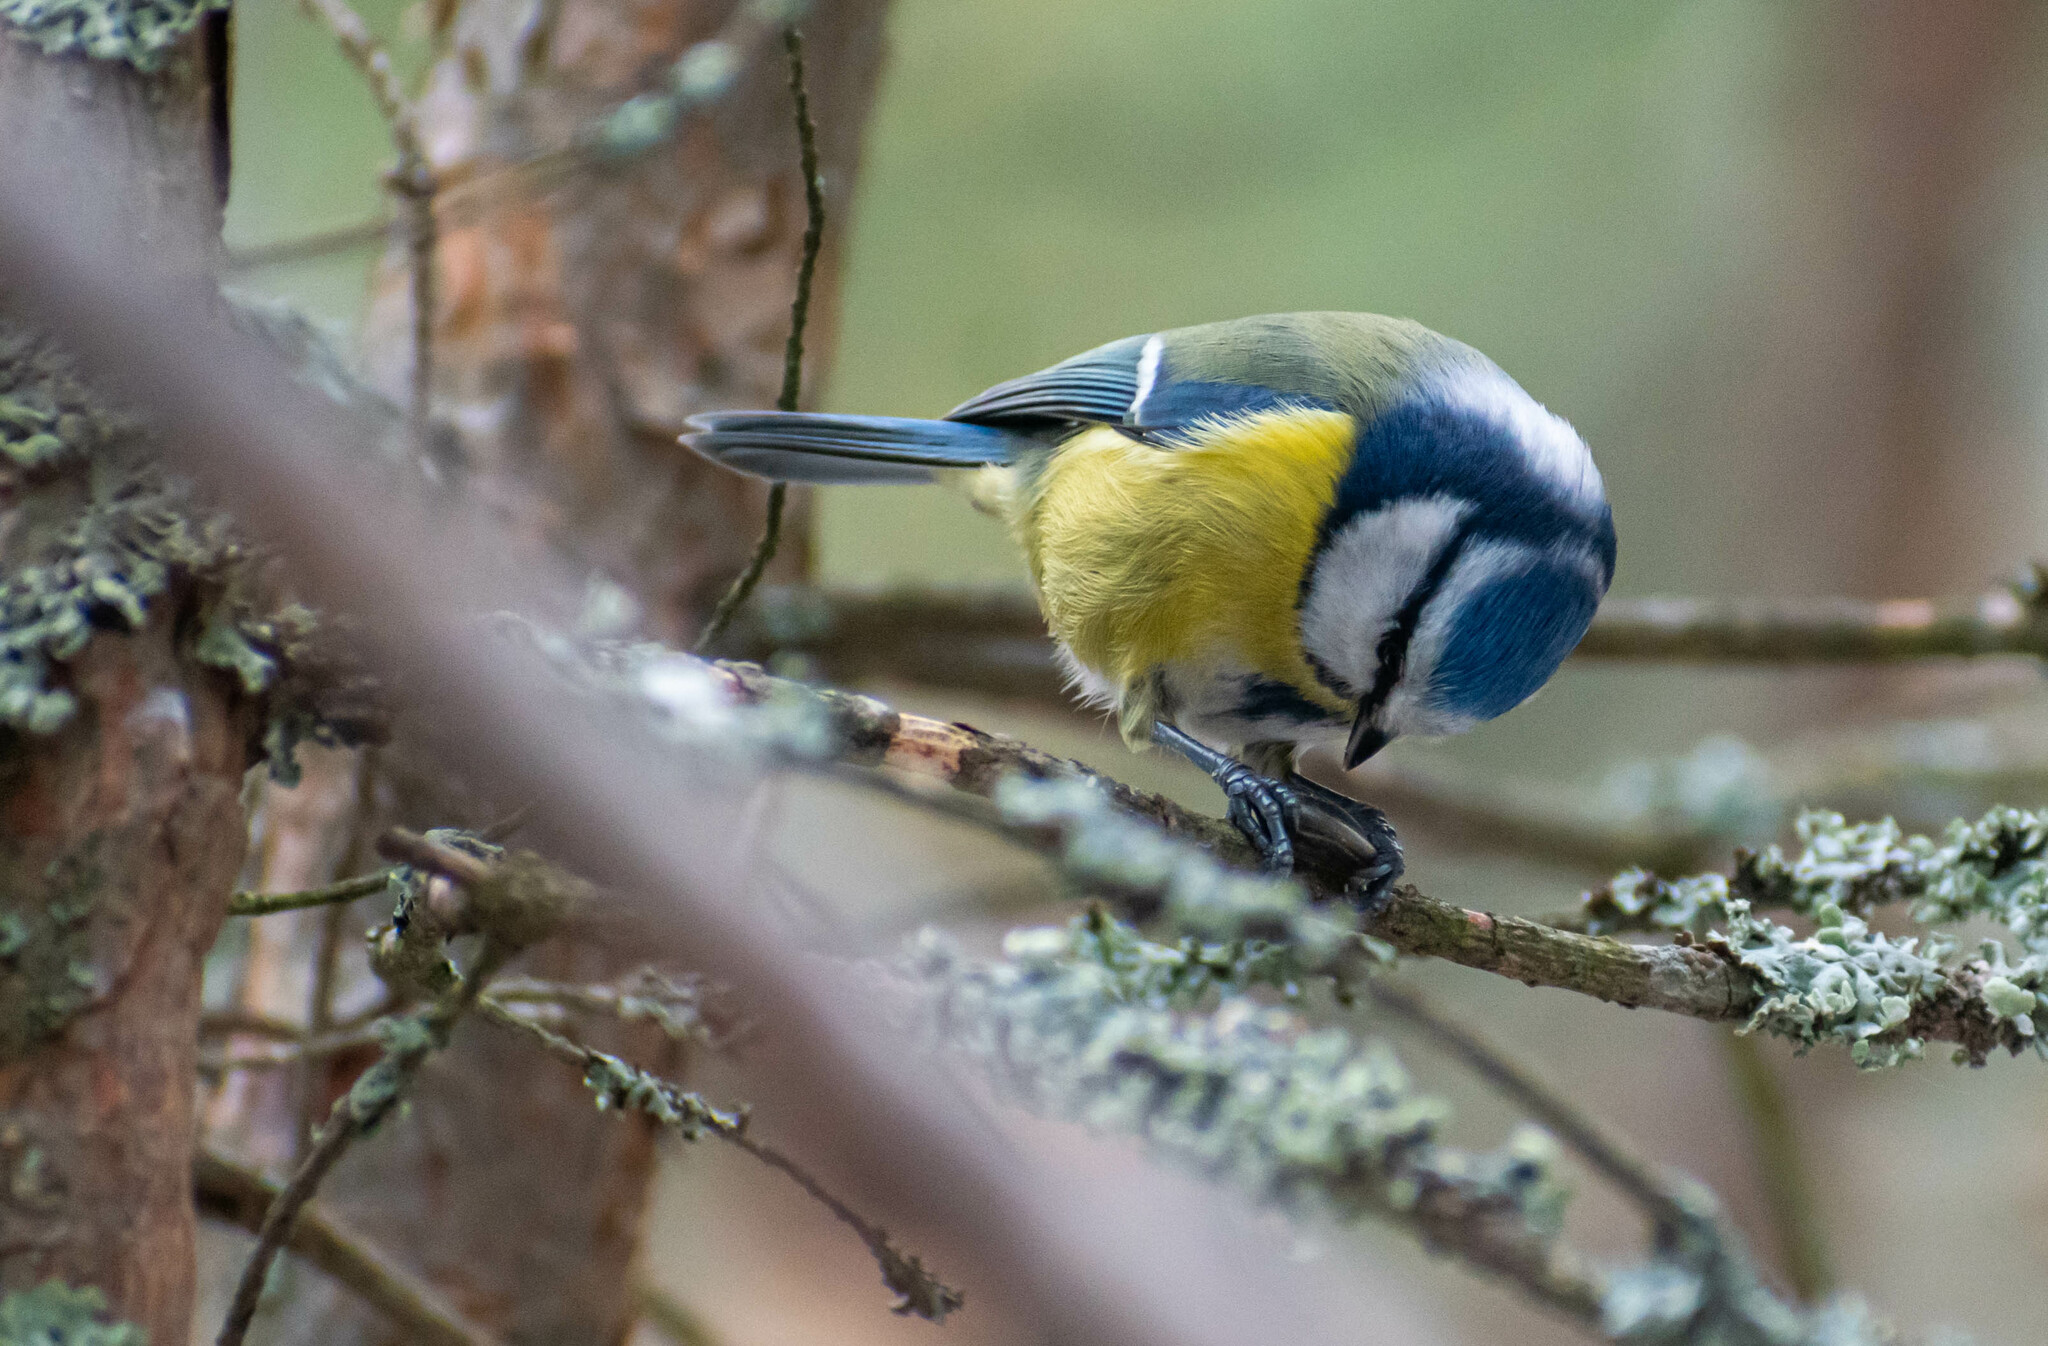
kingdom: Animalia
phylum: Chordata
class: Aves
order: Passeriformes
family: Paridae
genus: Cyanistes
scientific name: Cyanistes caeruleus
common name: Eurasian blue tit
